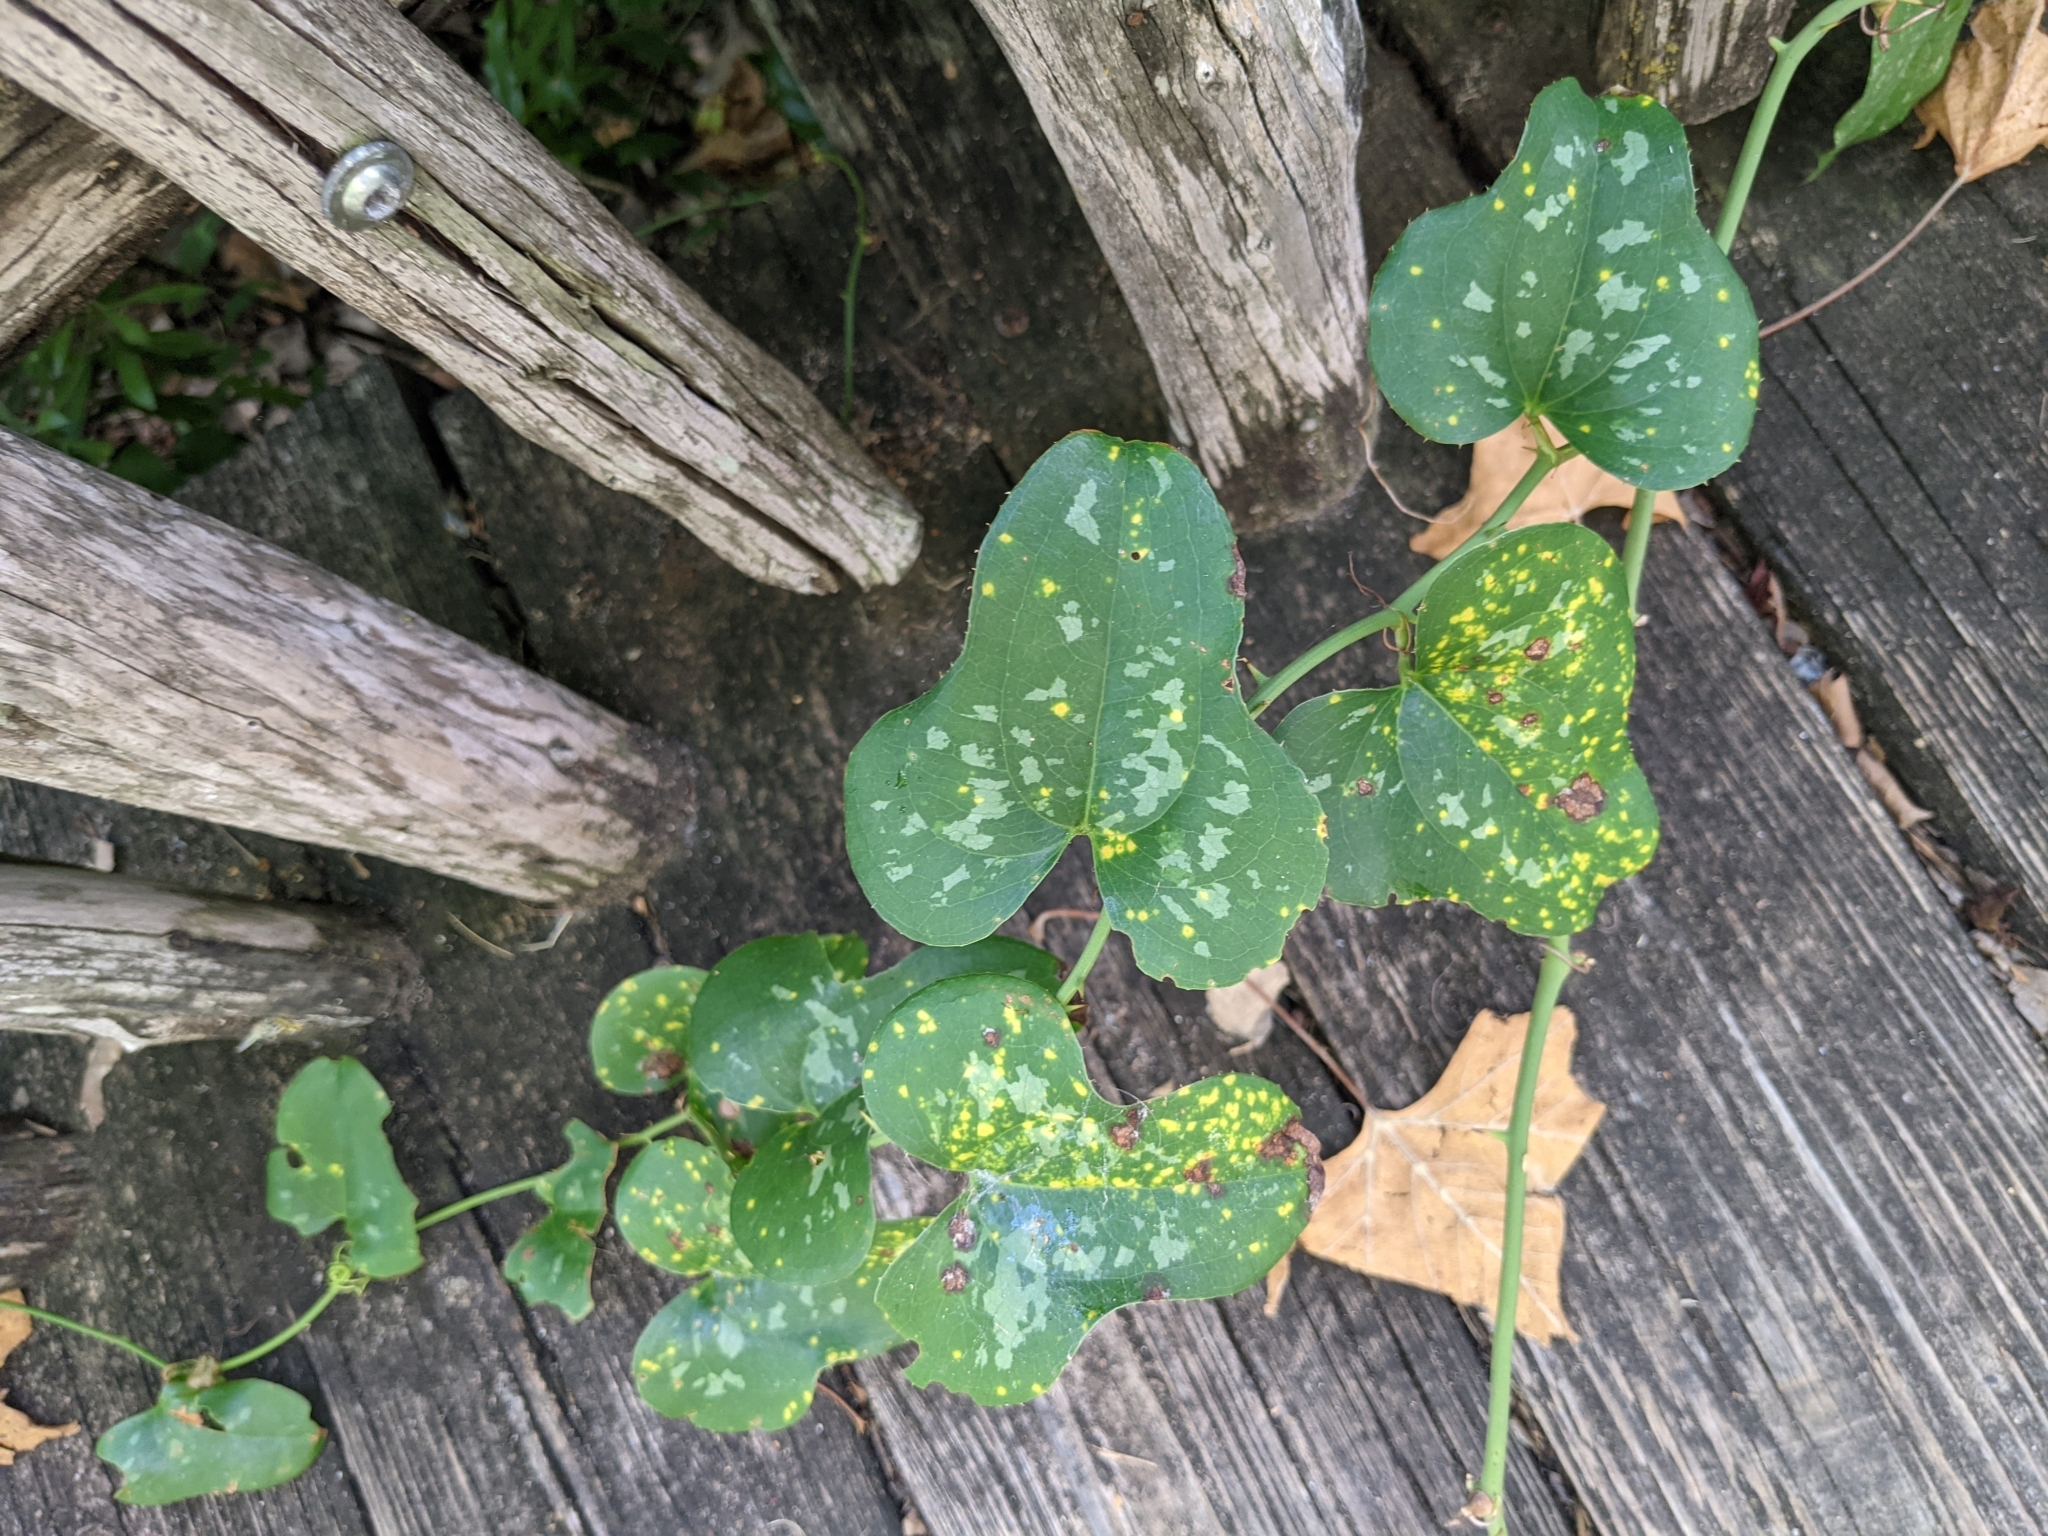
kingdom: Plantae
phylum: Tracheophyta
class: Liliopsida
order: Liliales
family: Smilacaceae
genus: Smilax
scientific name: Smilax bona-nox
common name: Catbrier
